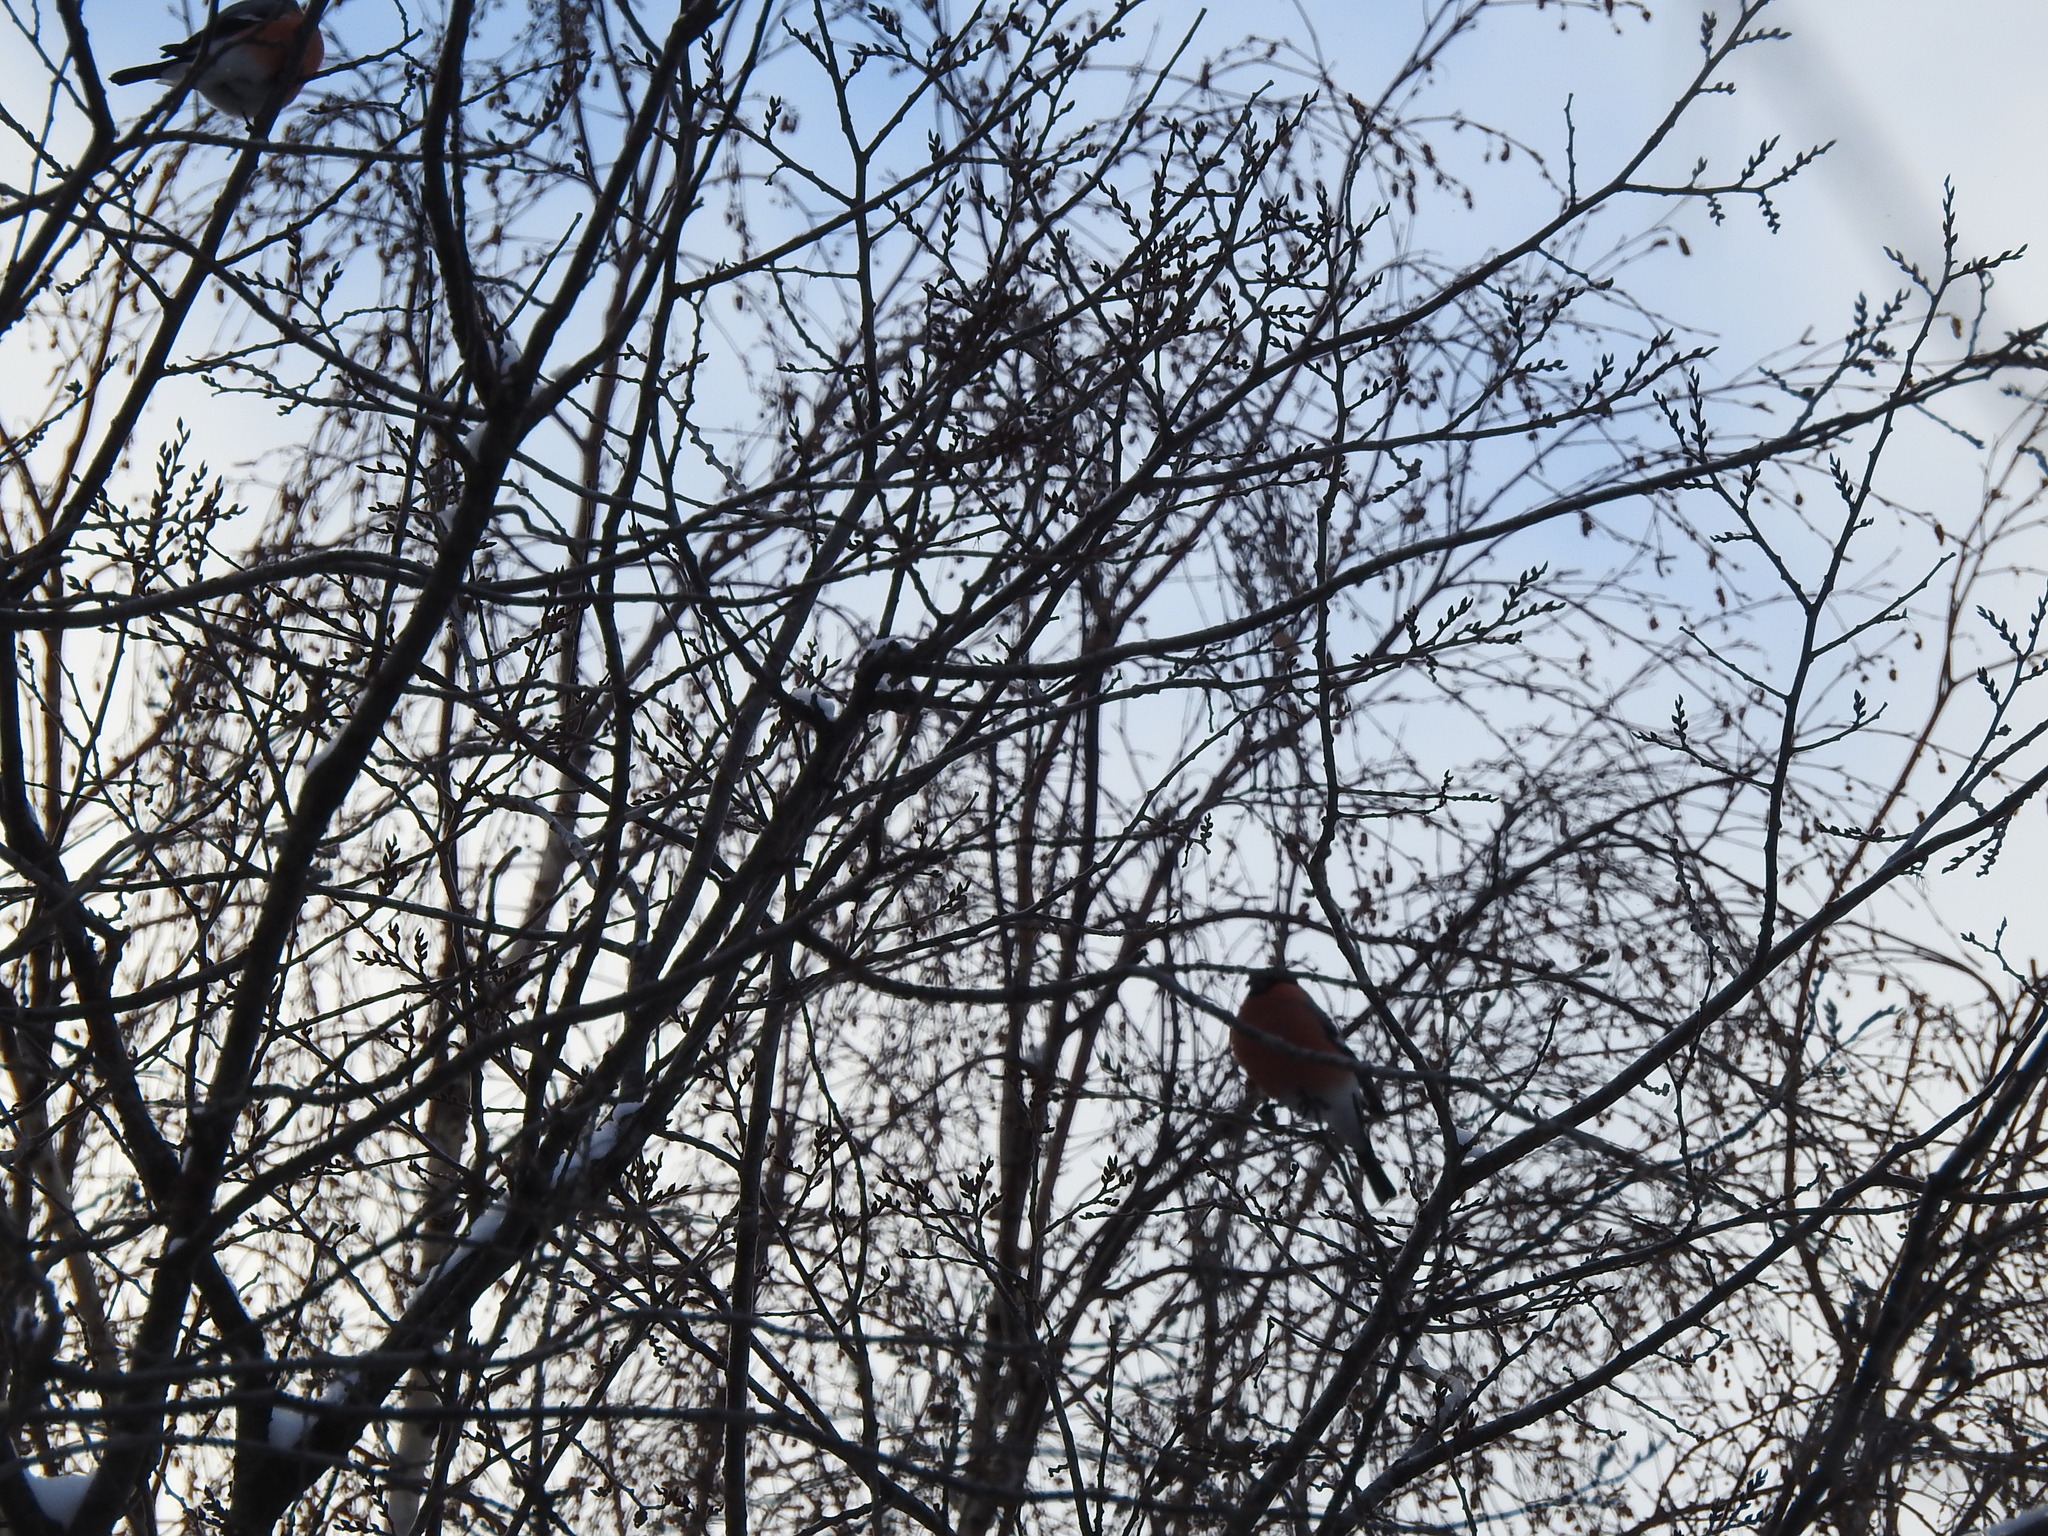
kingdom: Animalia
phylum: Chordata
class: Aves
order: Passeriformes
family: Fringillidae
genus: Pyrrhula
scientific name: Pyrrhula pyrrhula
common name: Eurasian bullfinch
